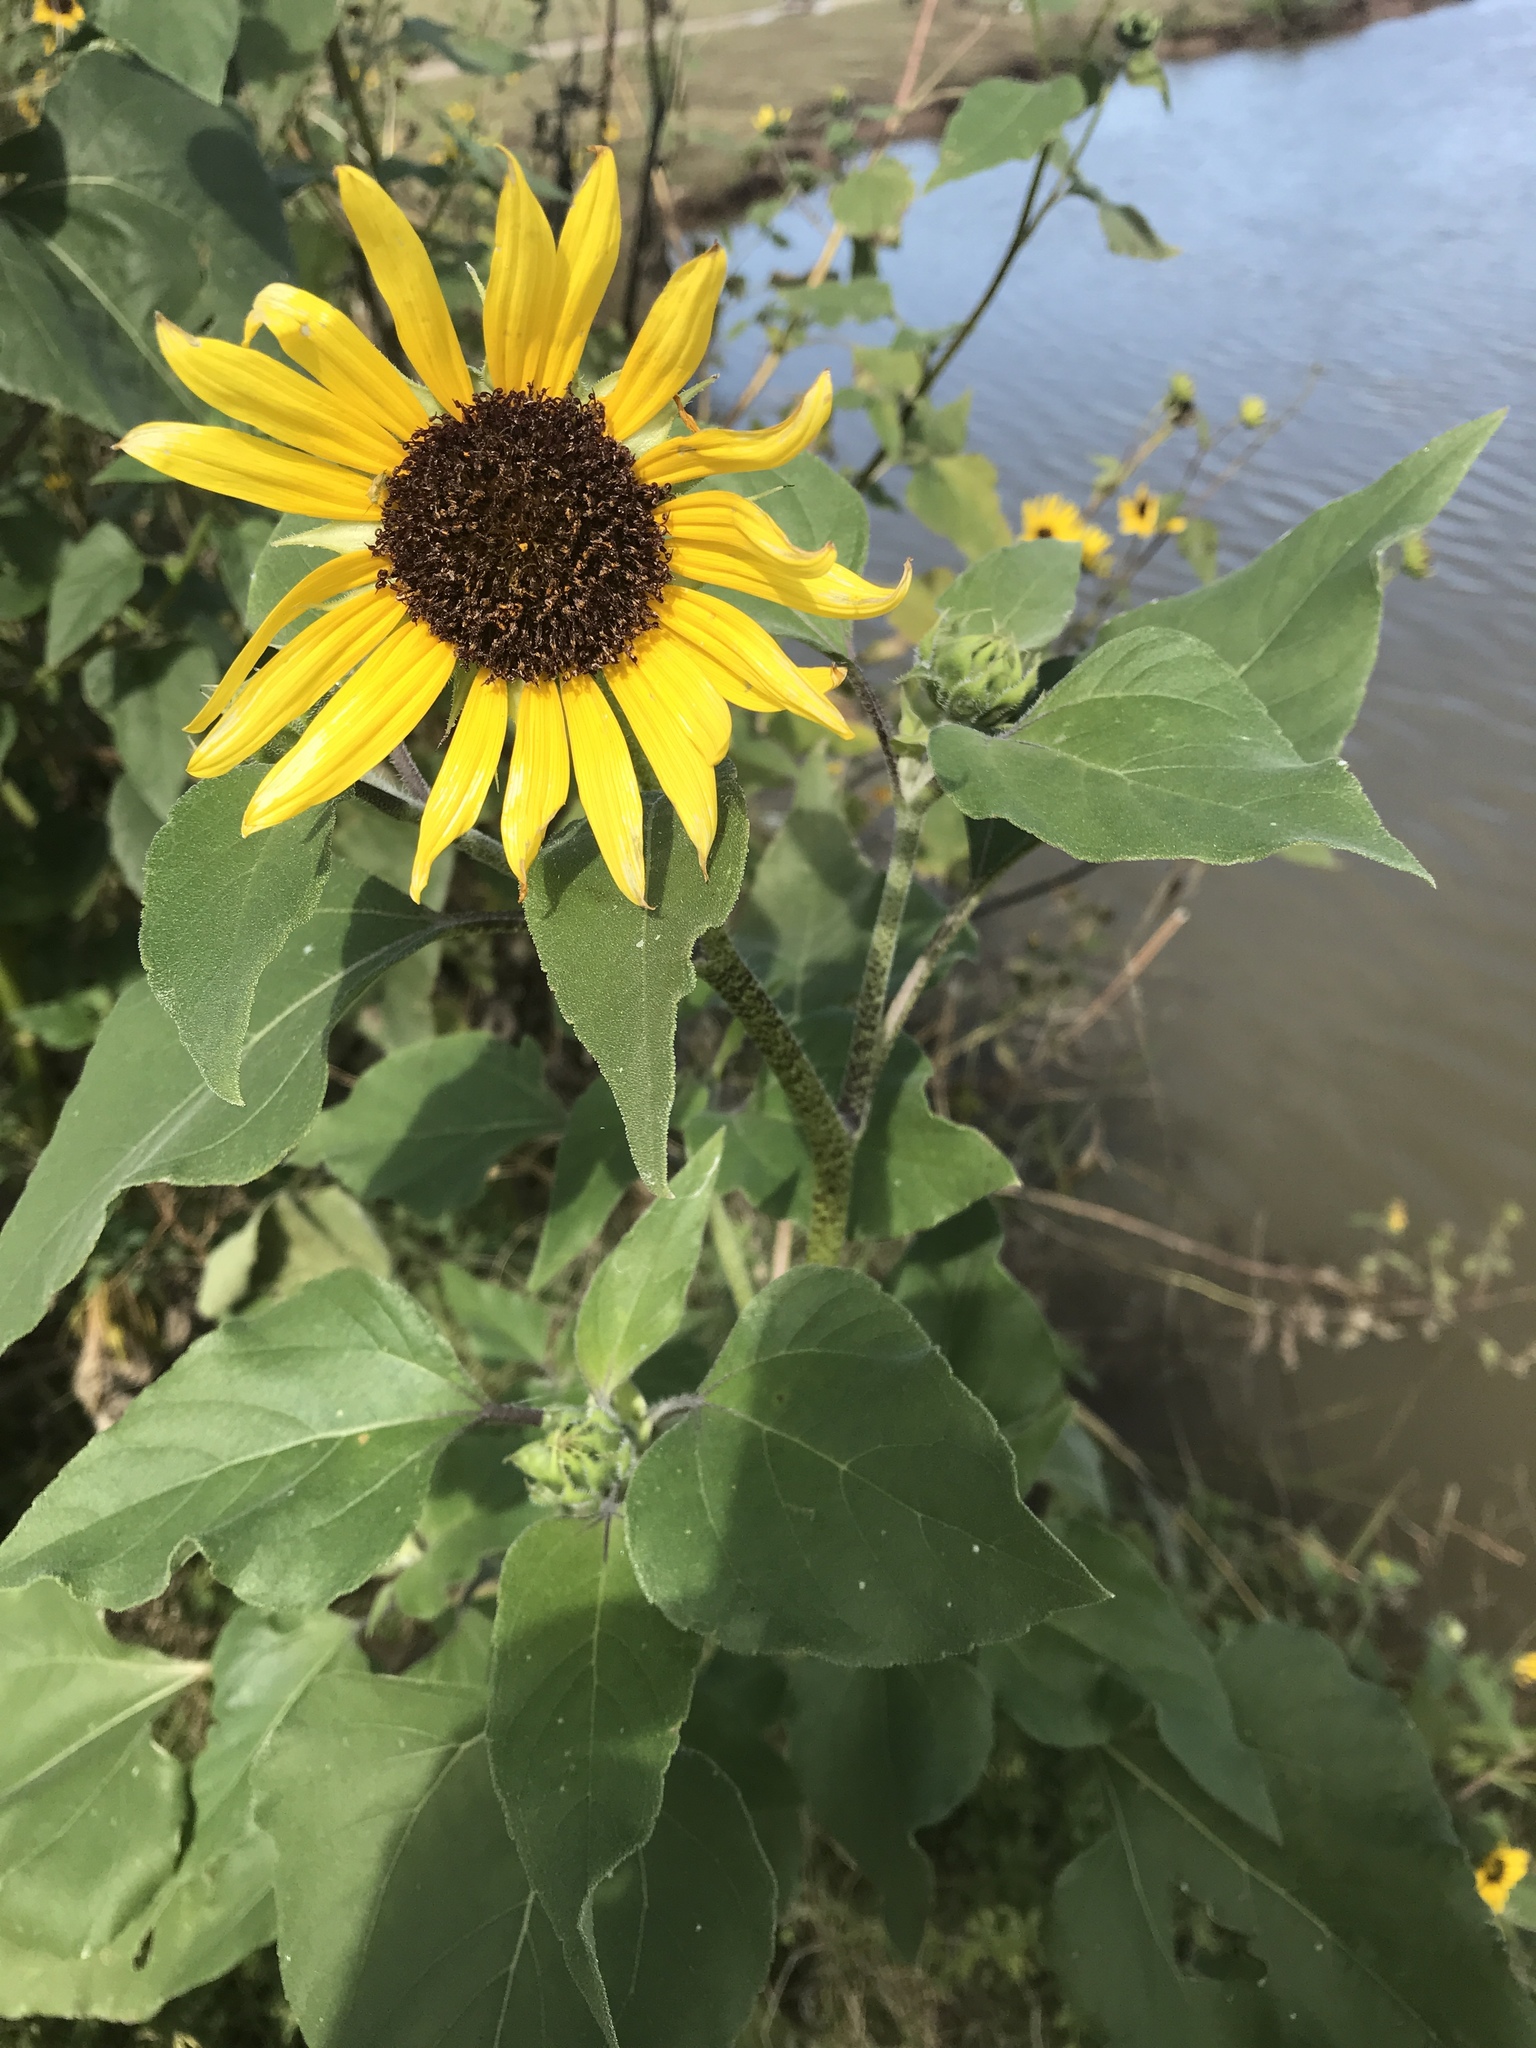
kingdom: Plantae
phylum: Tracheophyta
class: Magnoliopsida
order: Asterales
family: Asteraceae
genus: Helianthus
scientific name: Helianthus annuus
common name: Sunflower
